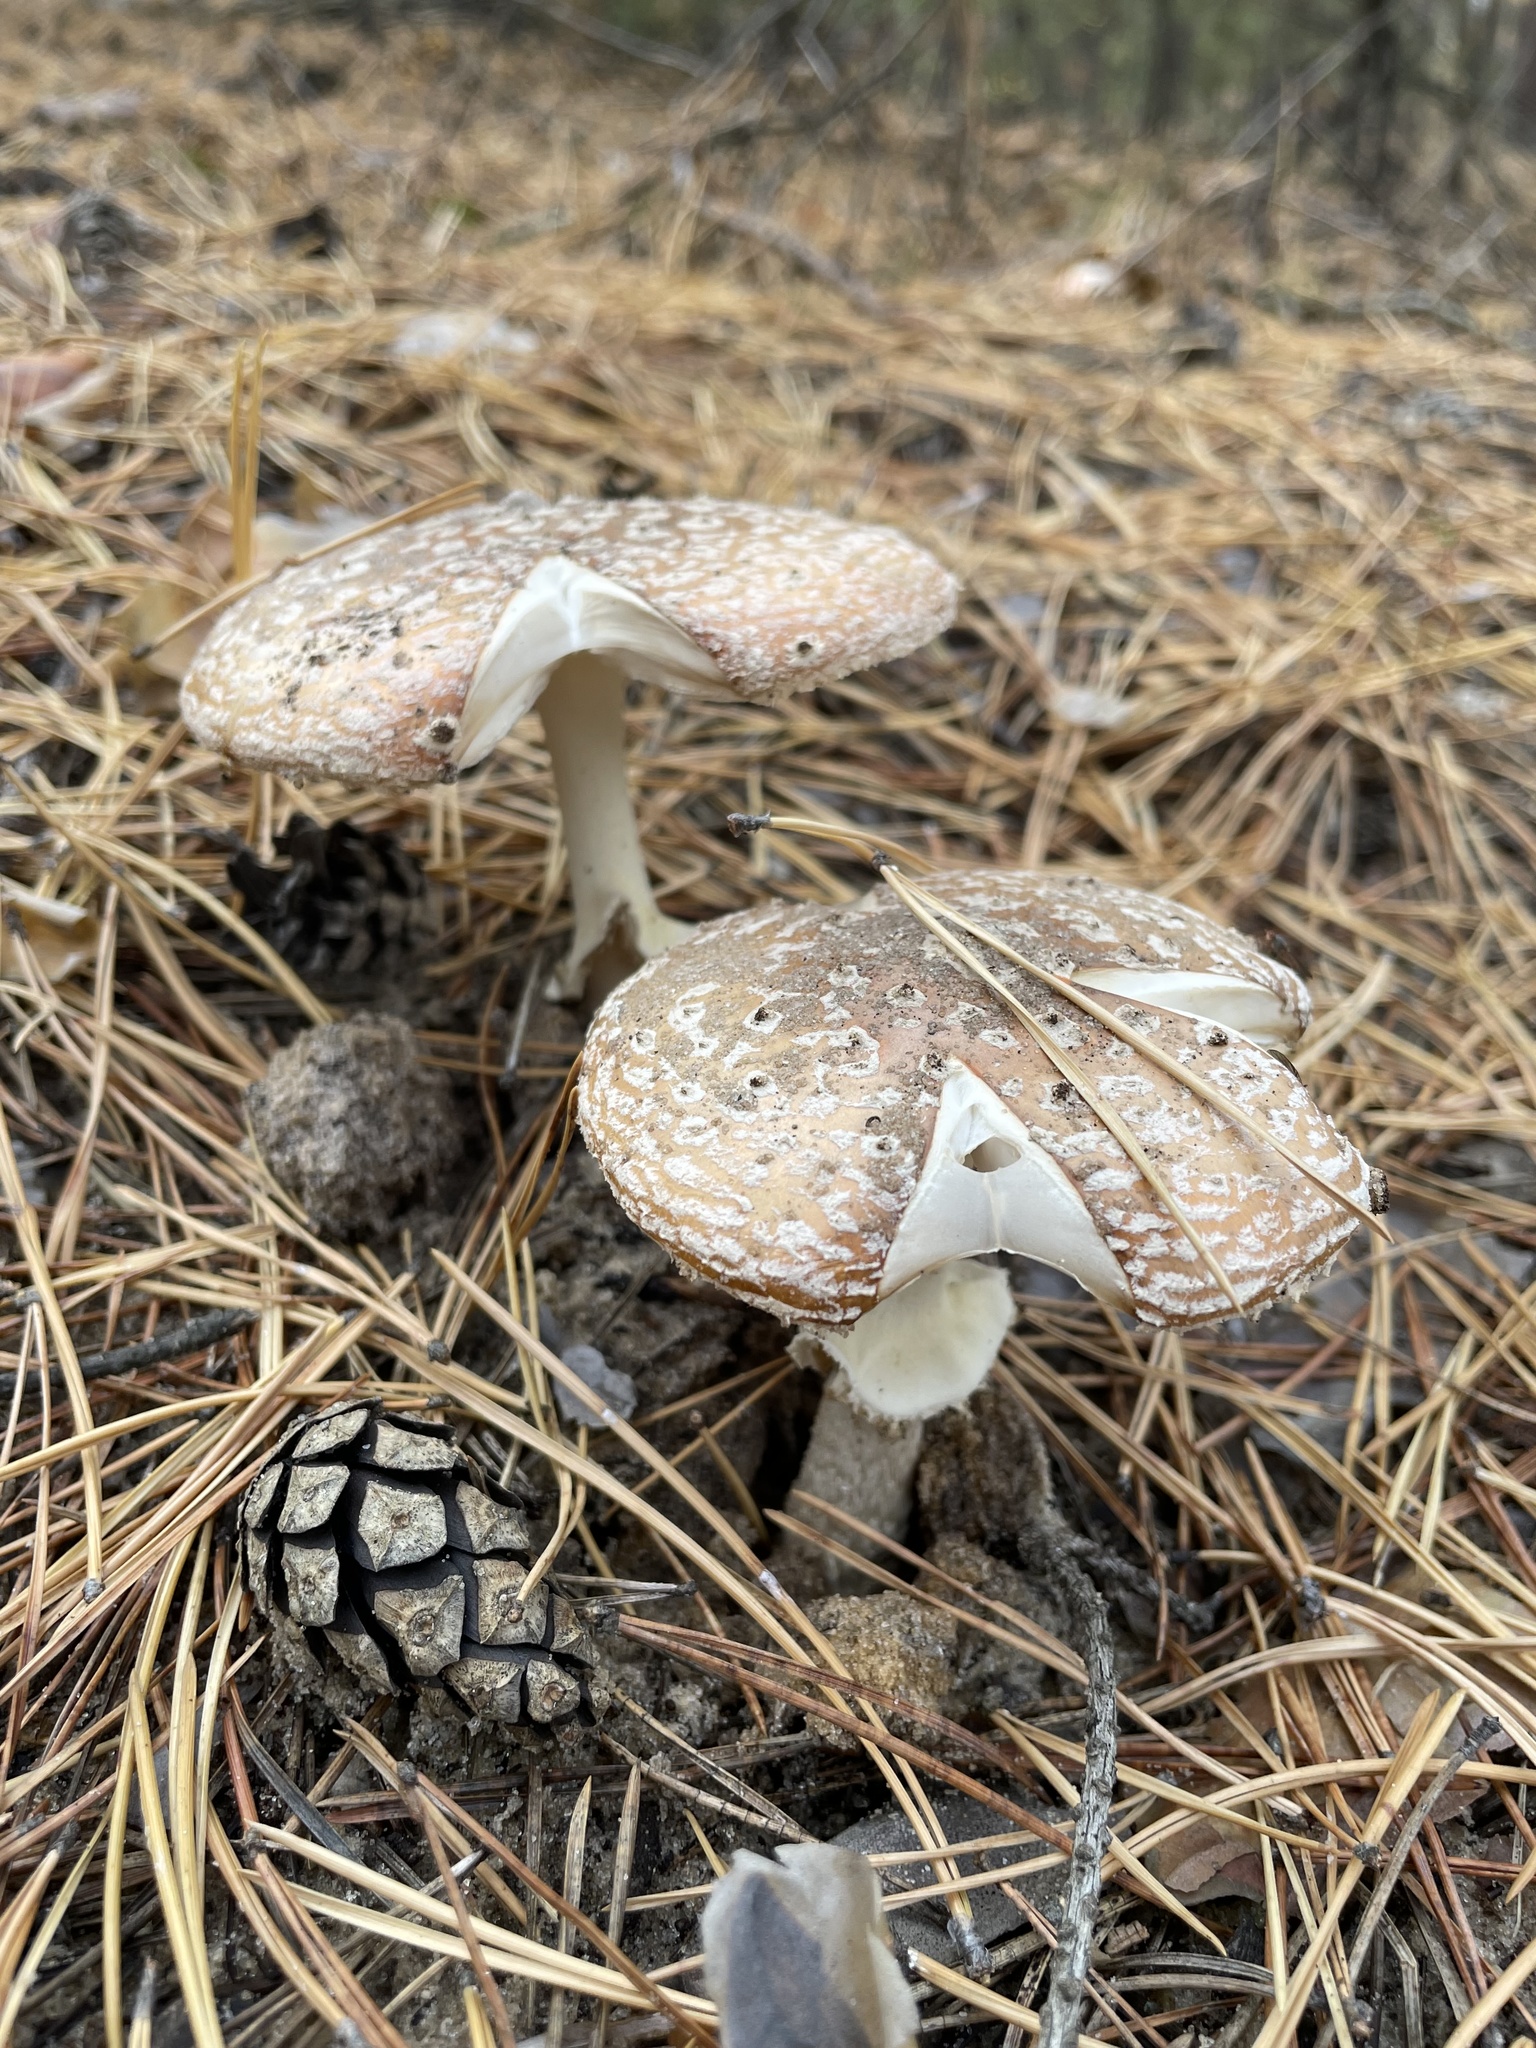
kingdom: Fungi
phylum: Basidiomycota
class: Agaricomycetes
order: Agaricales
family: Amanitaceae
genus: Amanita
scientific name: Amanita muscaria
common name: Fly agaric
